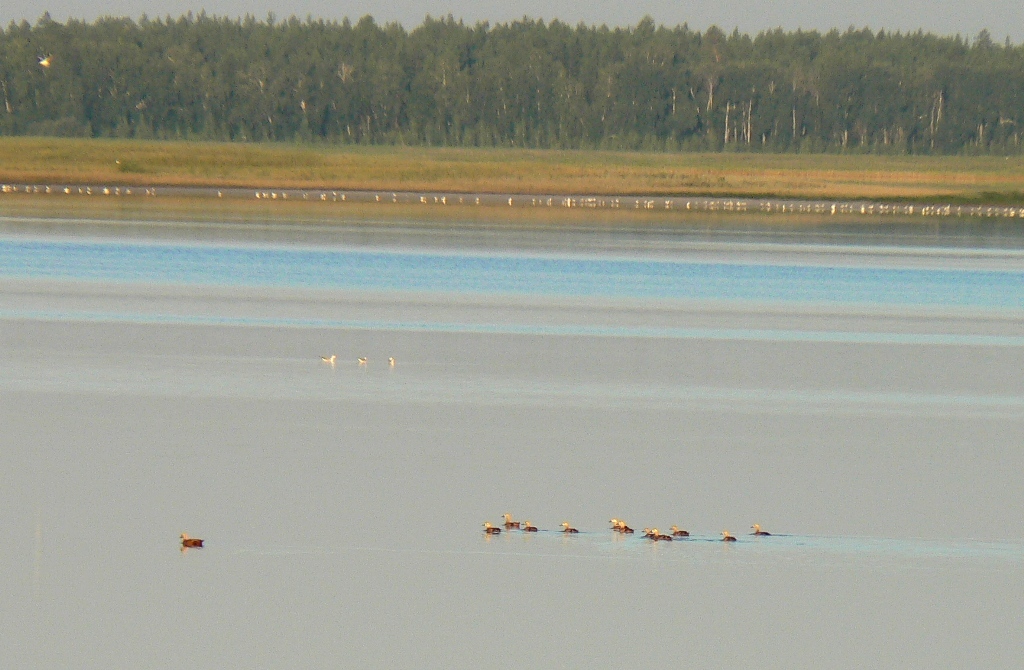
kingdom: Animalia
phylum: Chordata
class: Aves
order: Anseriformes
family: Anatidae
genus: Tadorna
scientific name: Tadorna ferruginea
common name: Ruddy shelduck
